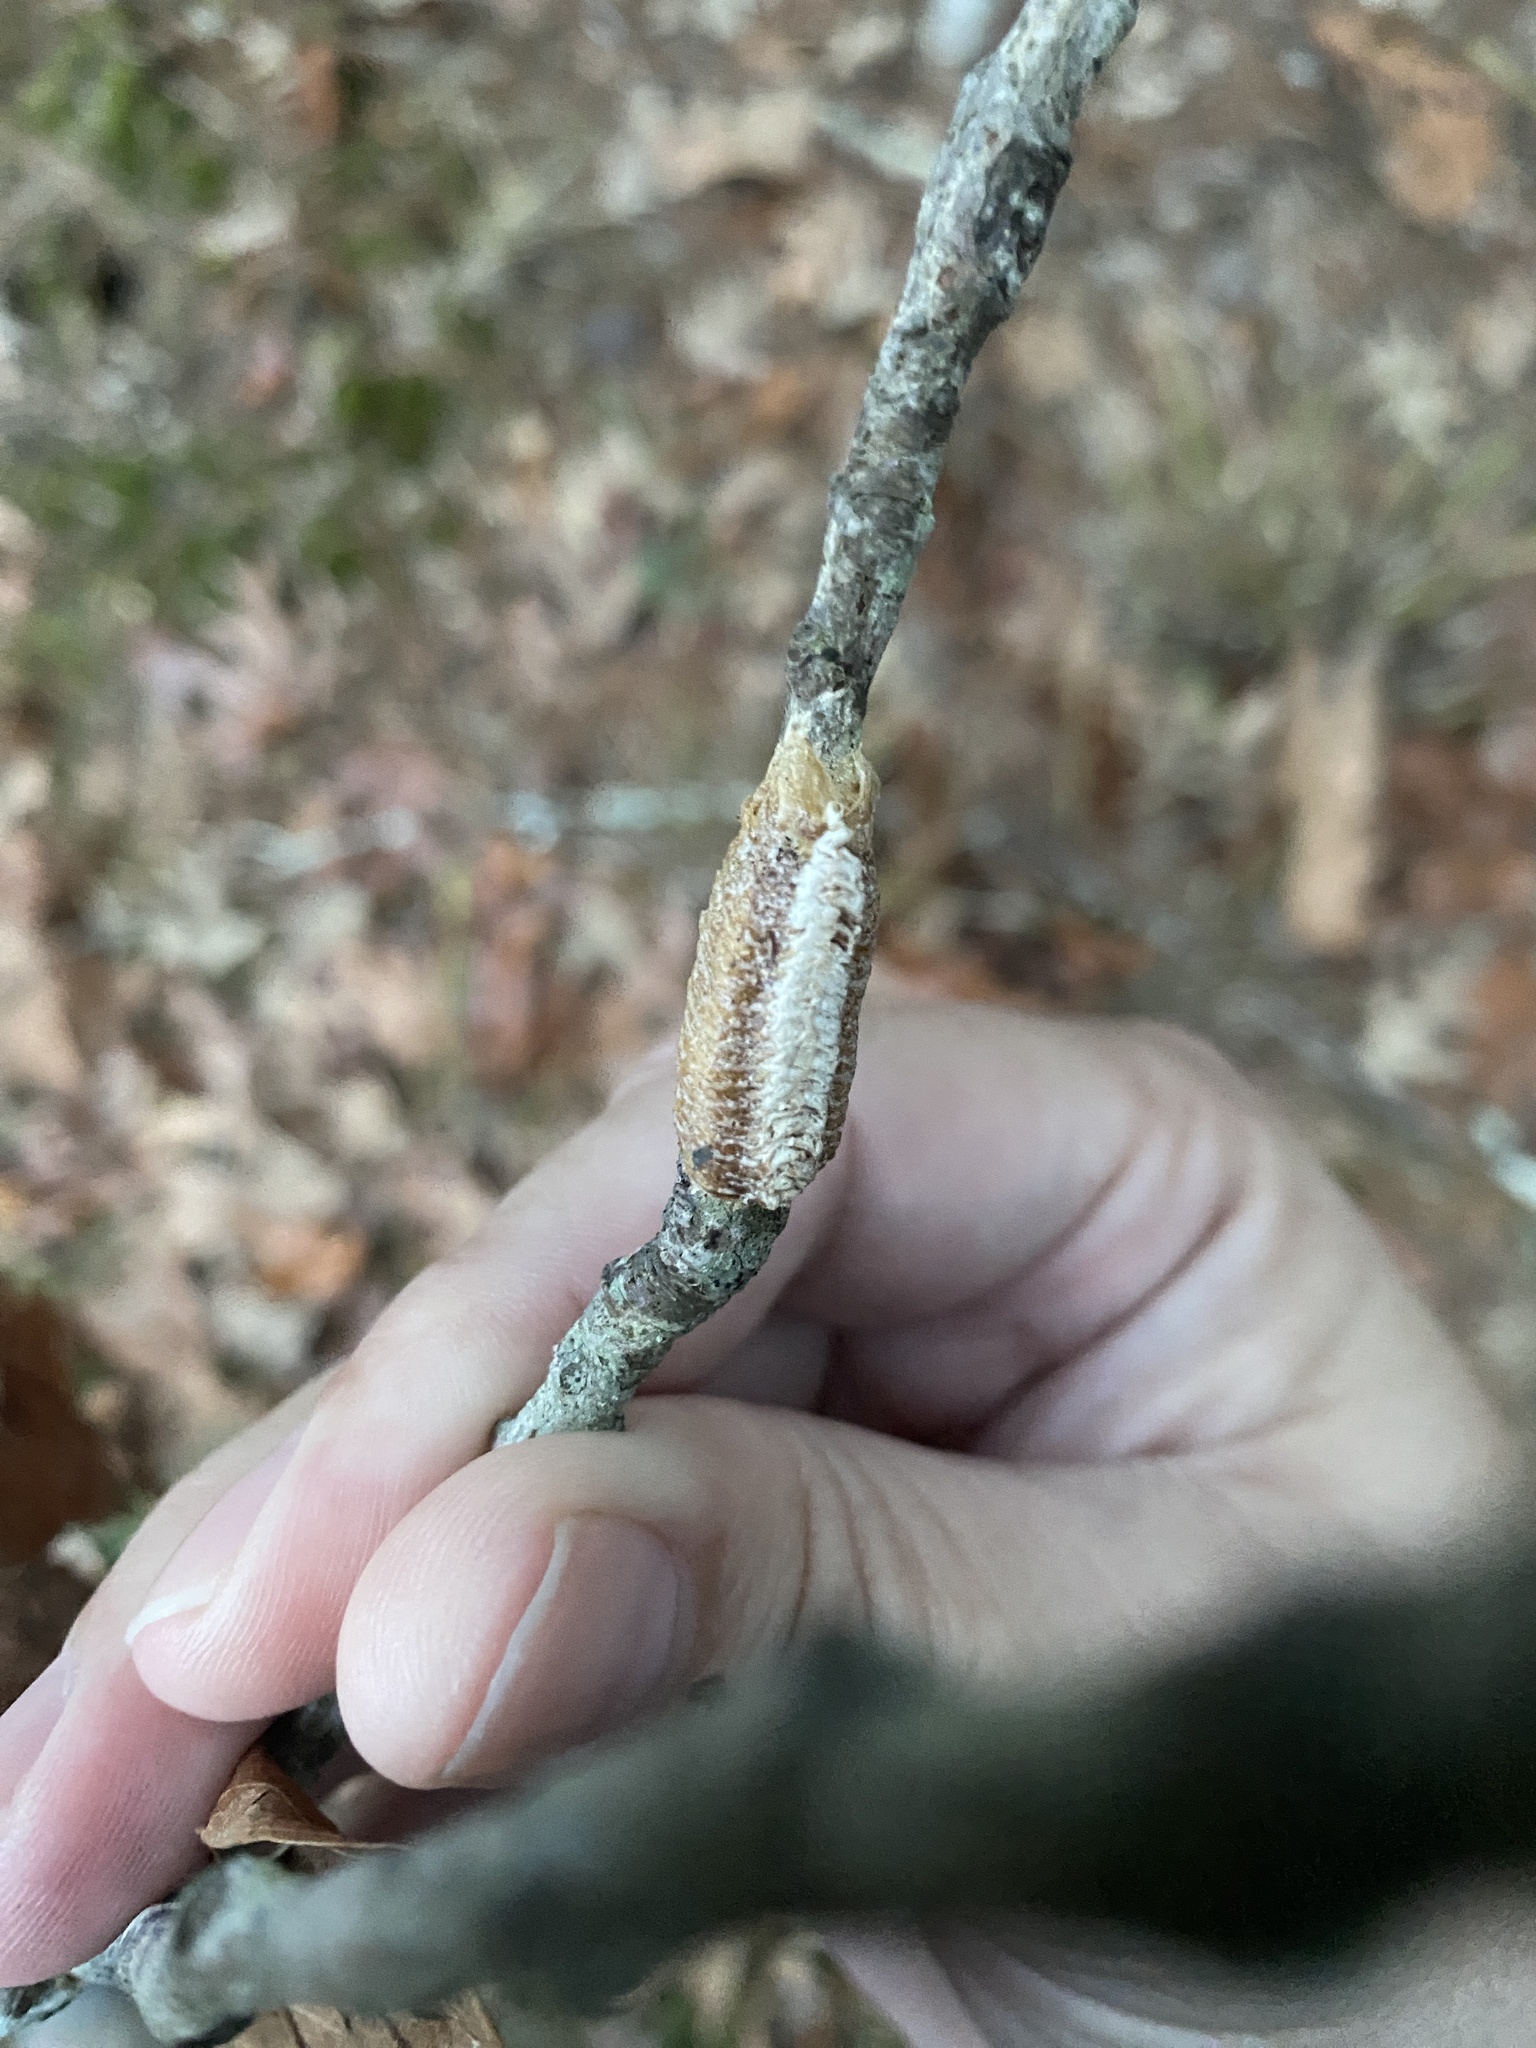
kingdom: Animalia
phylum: Arthropoda
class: Insecta
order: Mantodea
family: Mantidae
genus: Stagmomantis
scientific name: Stagmomantis carolina
